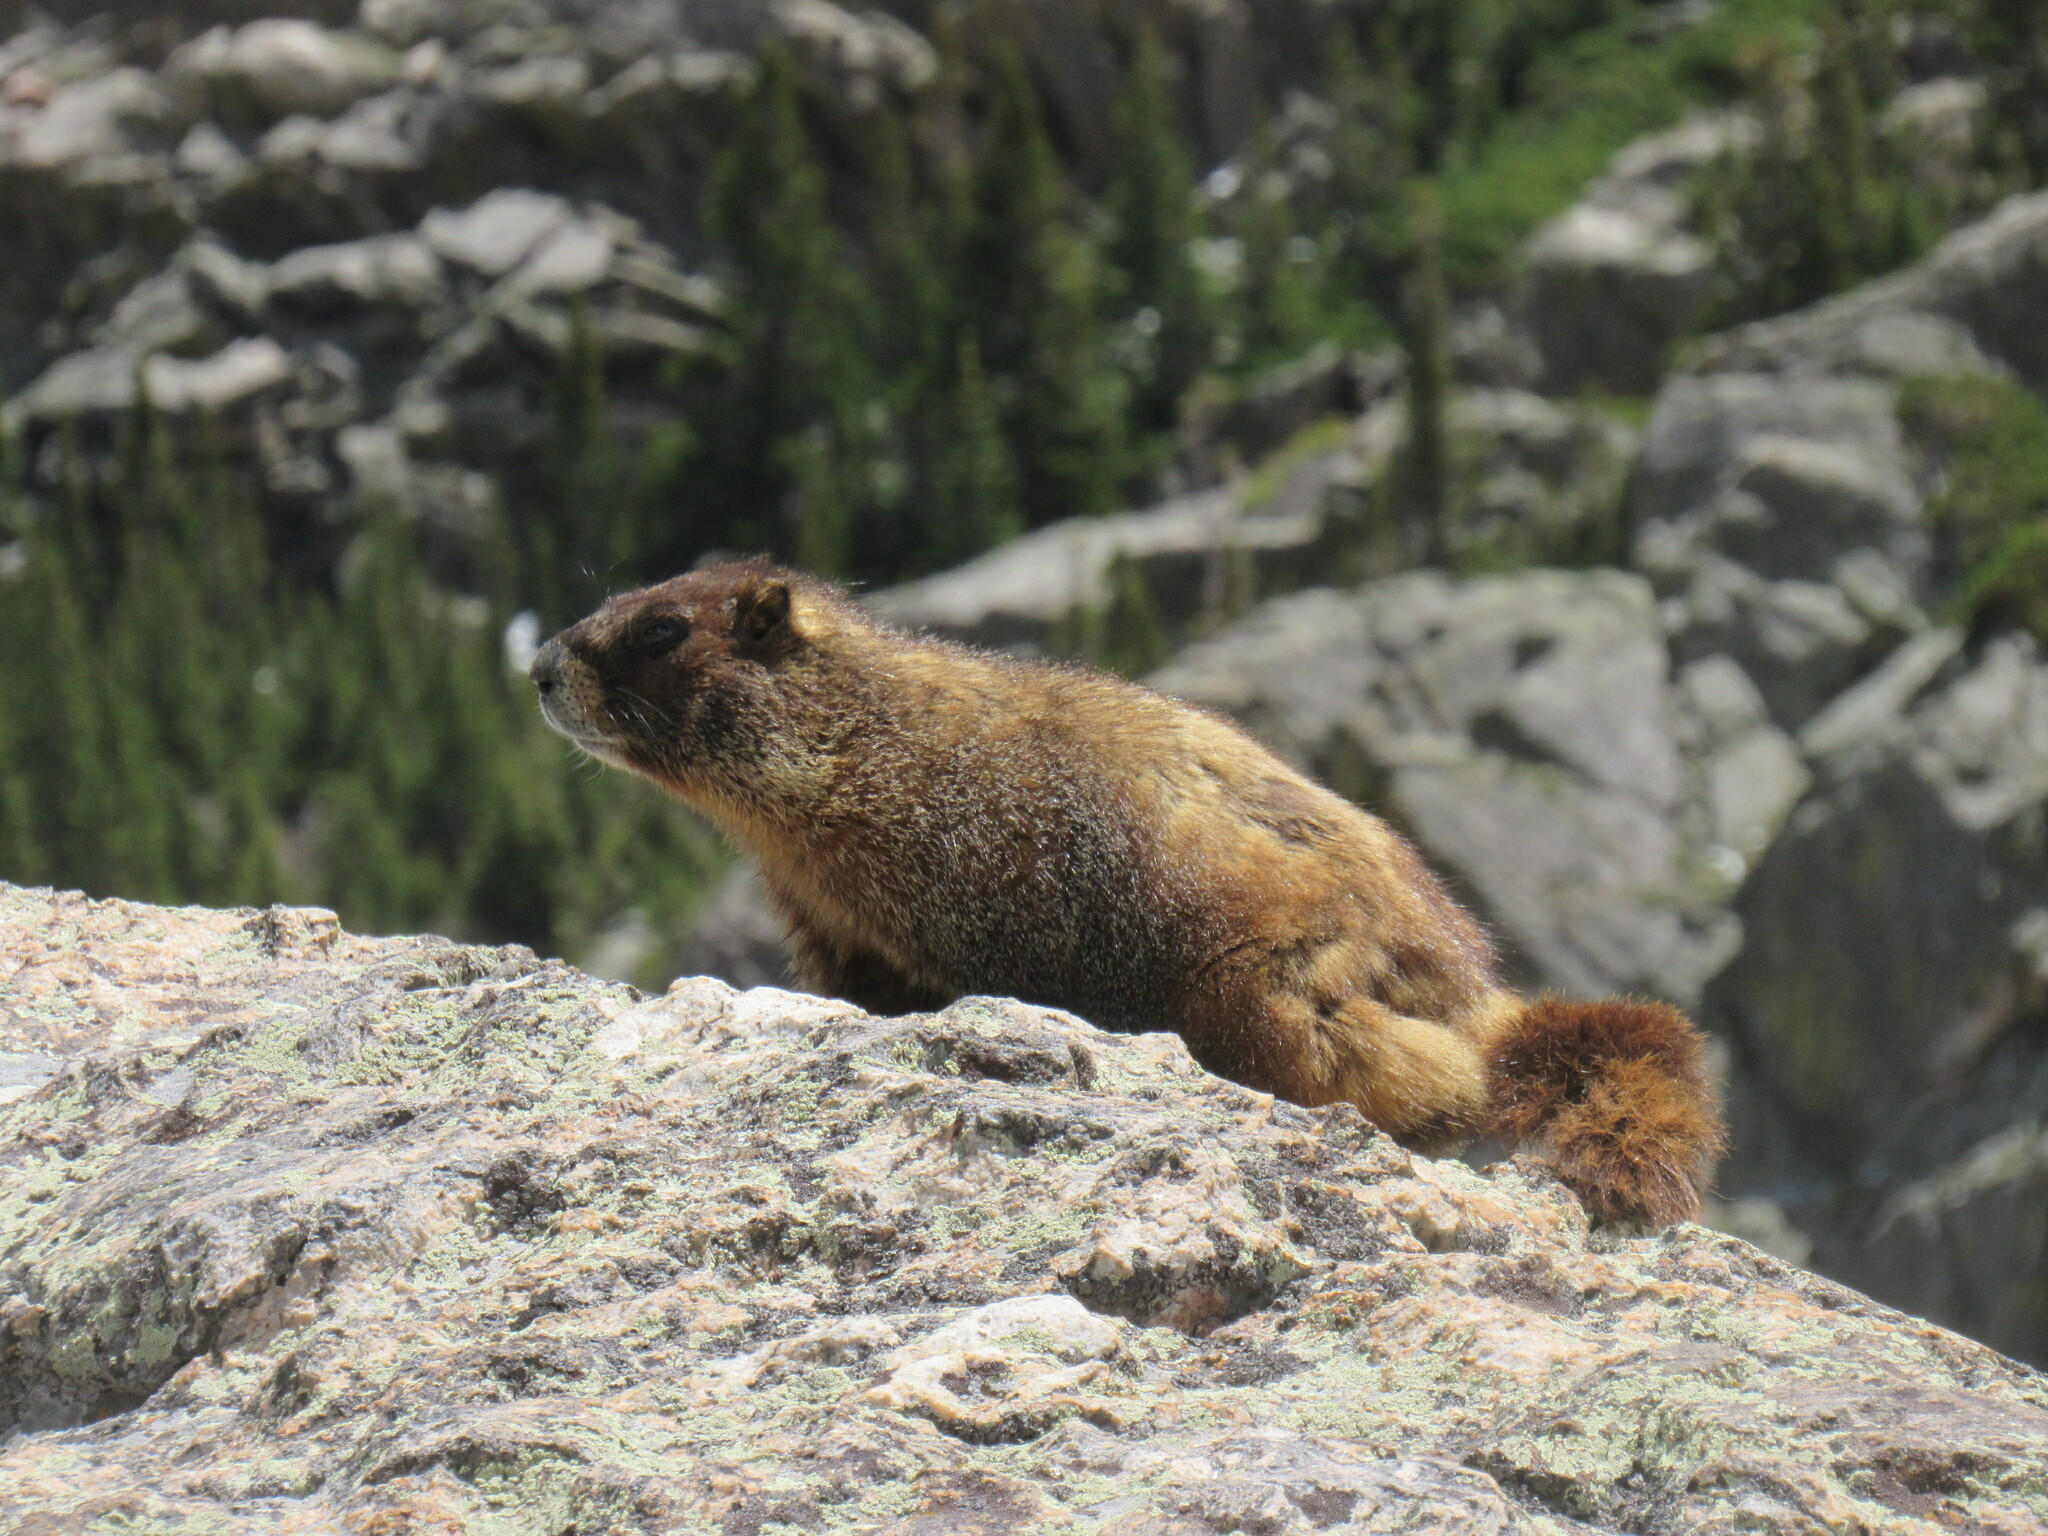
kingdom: Animalia
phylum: Chordata
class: Mammalia
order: Rodentia
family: Sciuridae
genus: Marmota
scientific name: Marmota flaviventris
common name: Yellow-bellied marmot
